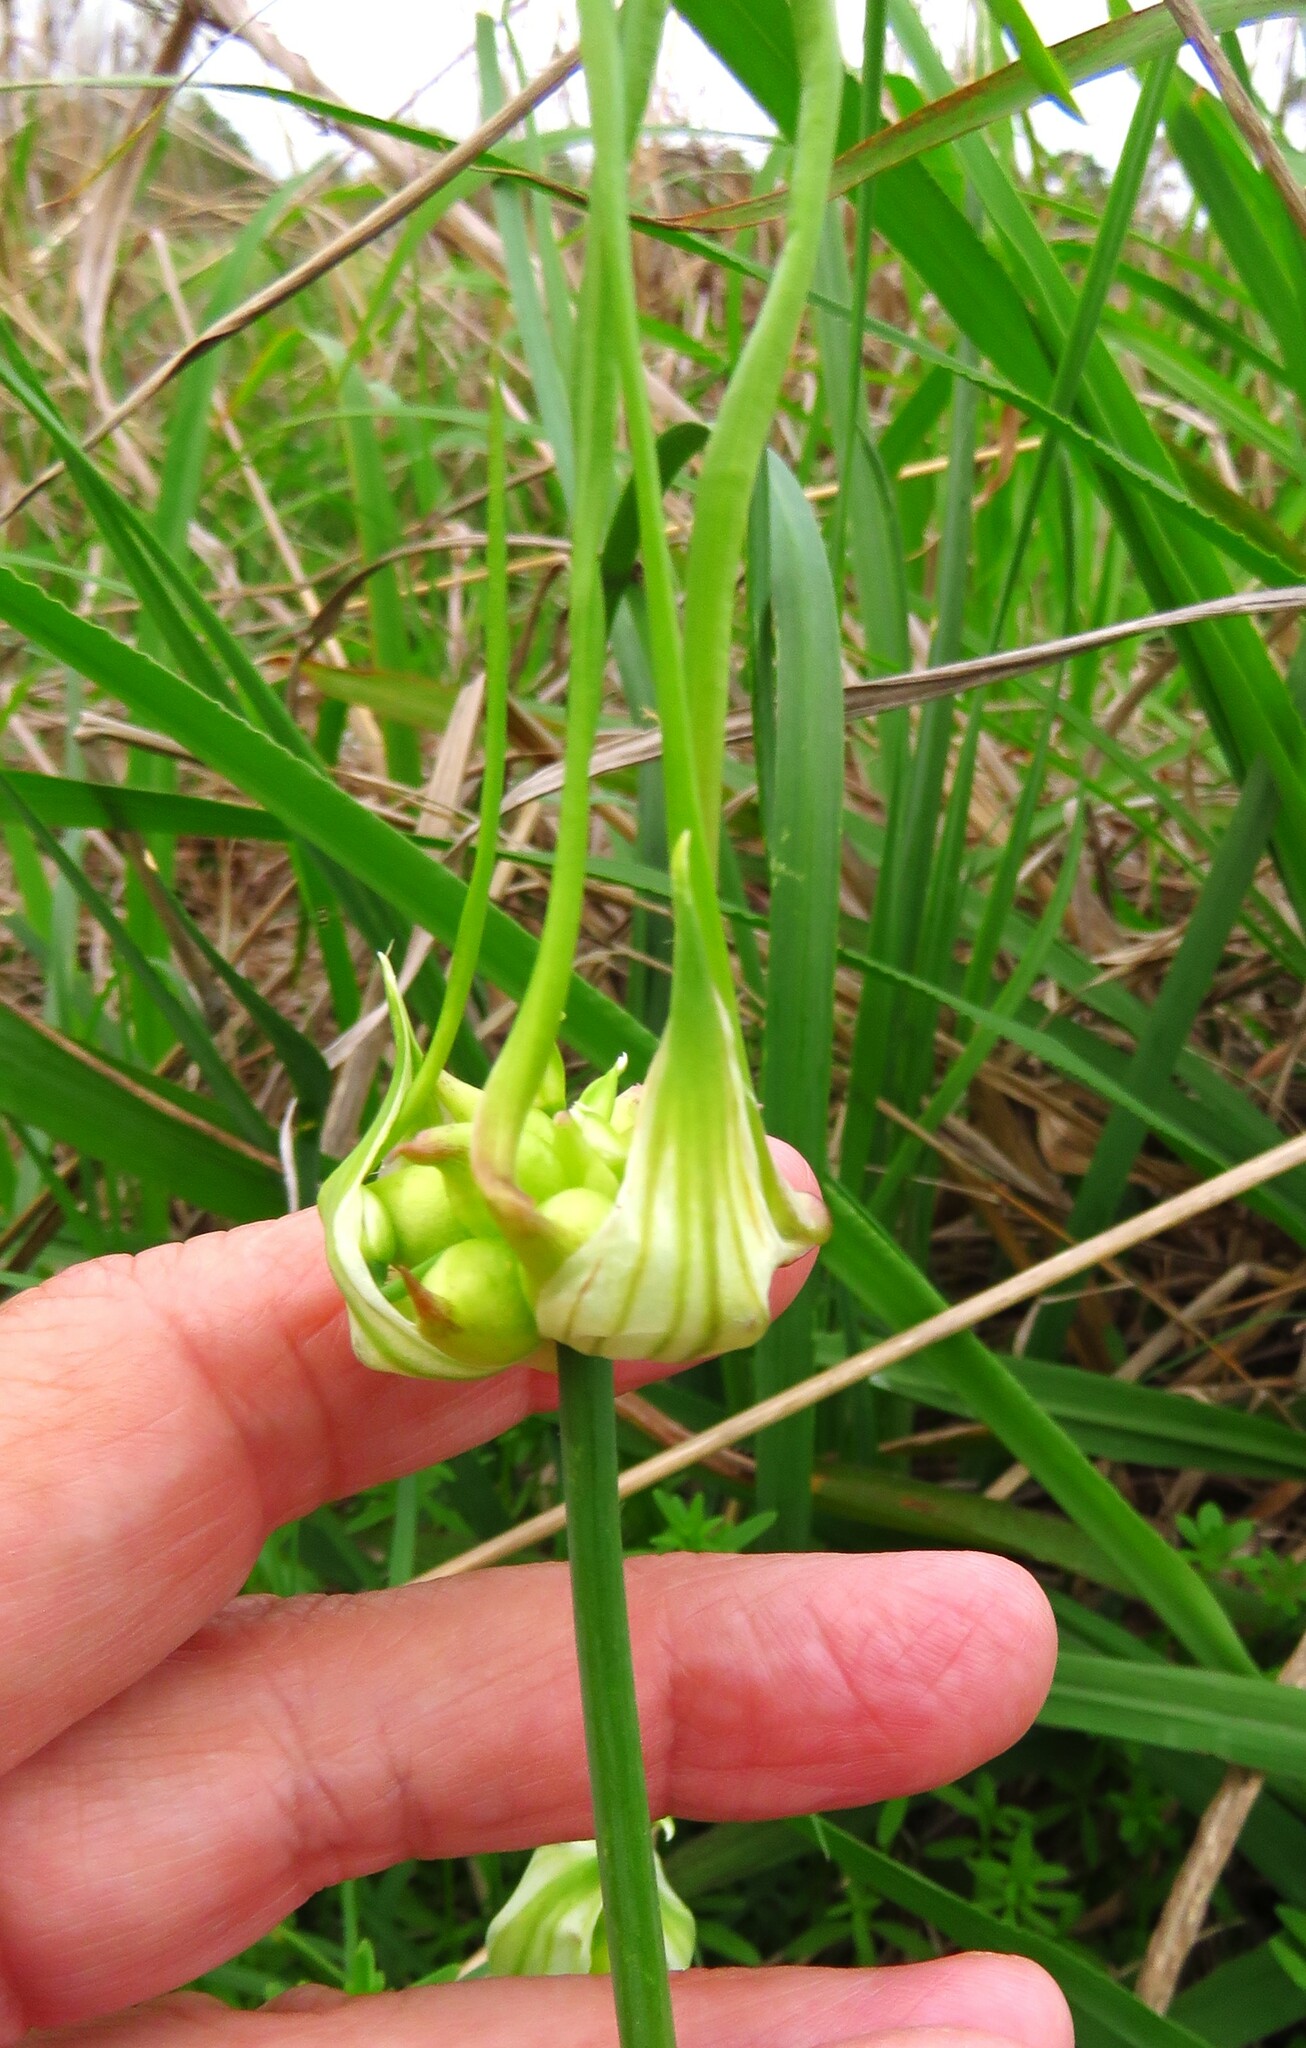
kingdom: Plantae
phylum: Tracheophyta
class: Liliopsida
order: Asparagales
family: Amaryllidaceae
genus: Allium
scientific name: Allium canadense
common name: Meadow garlic
